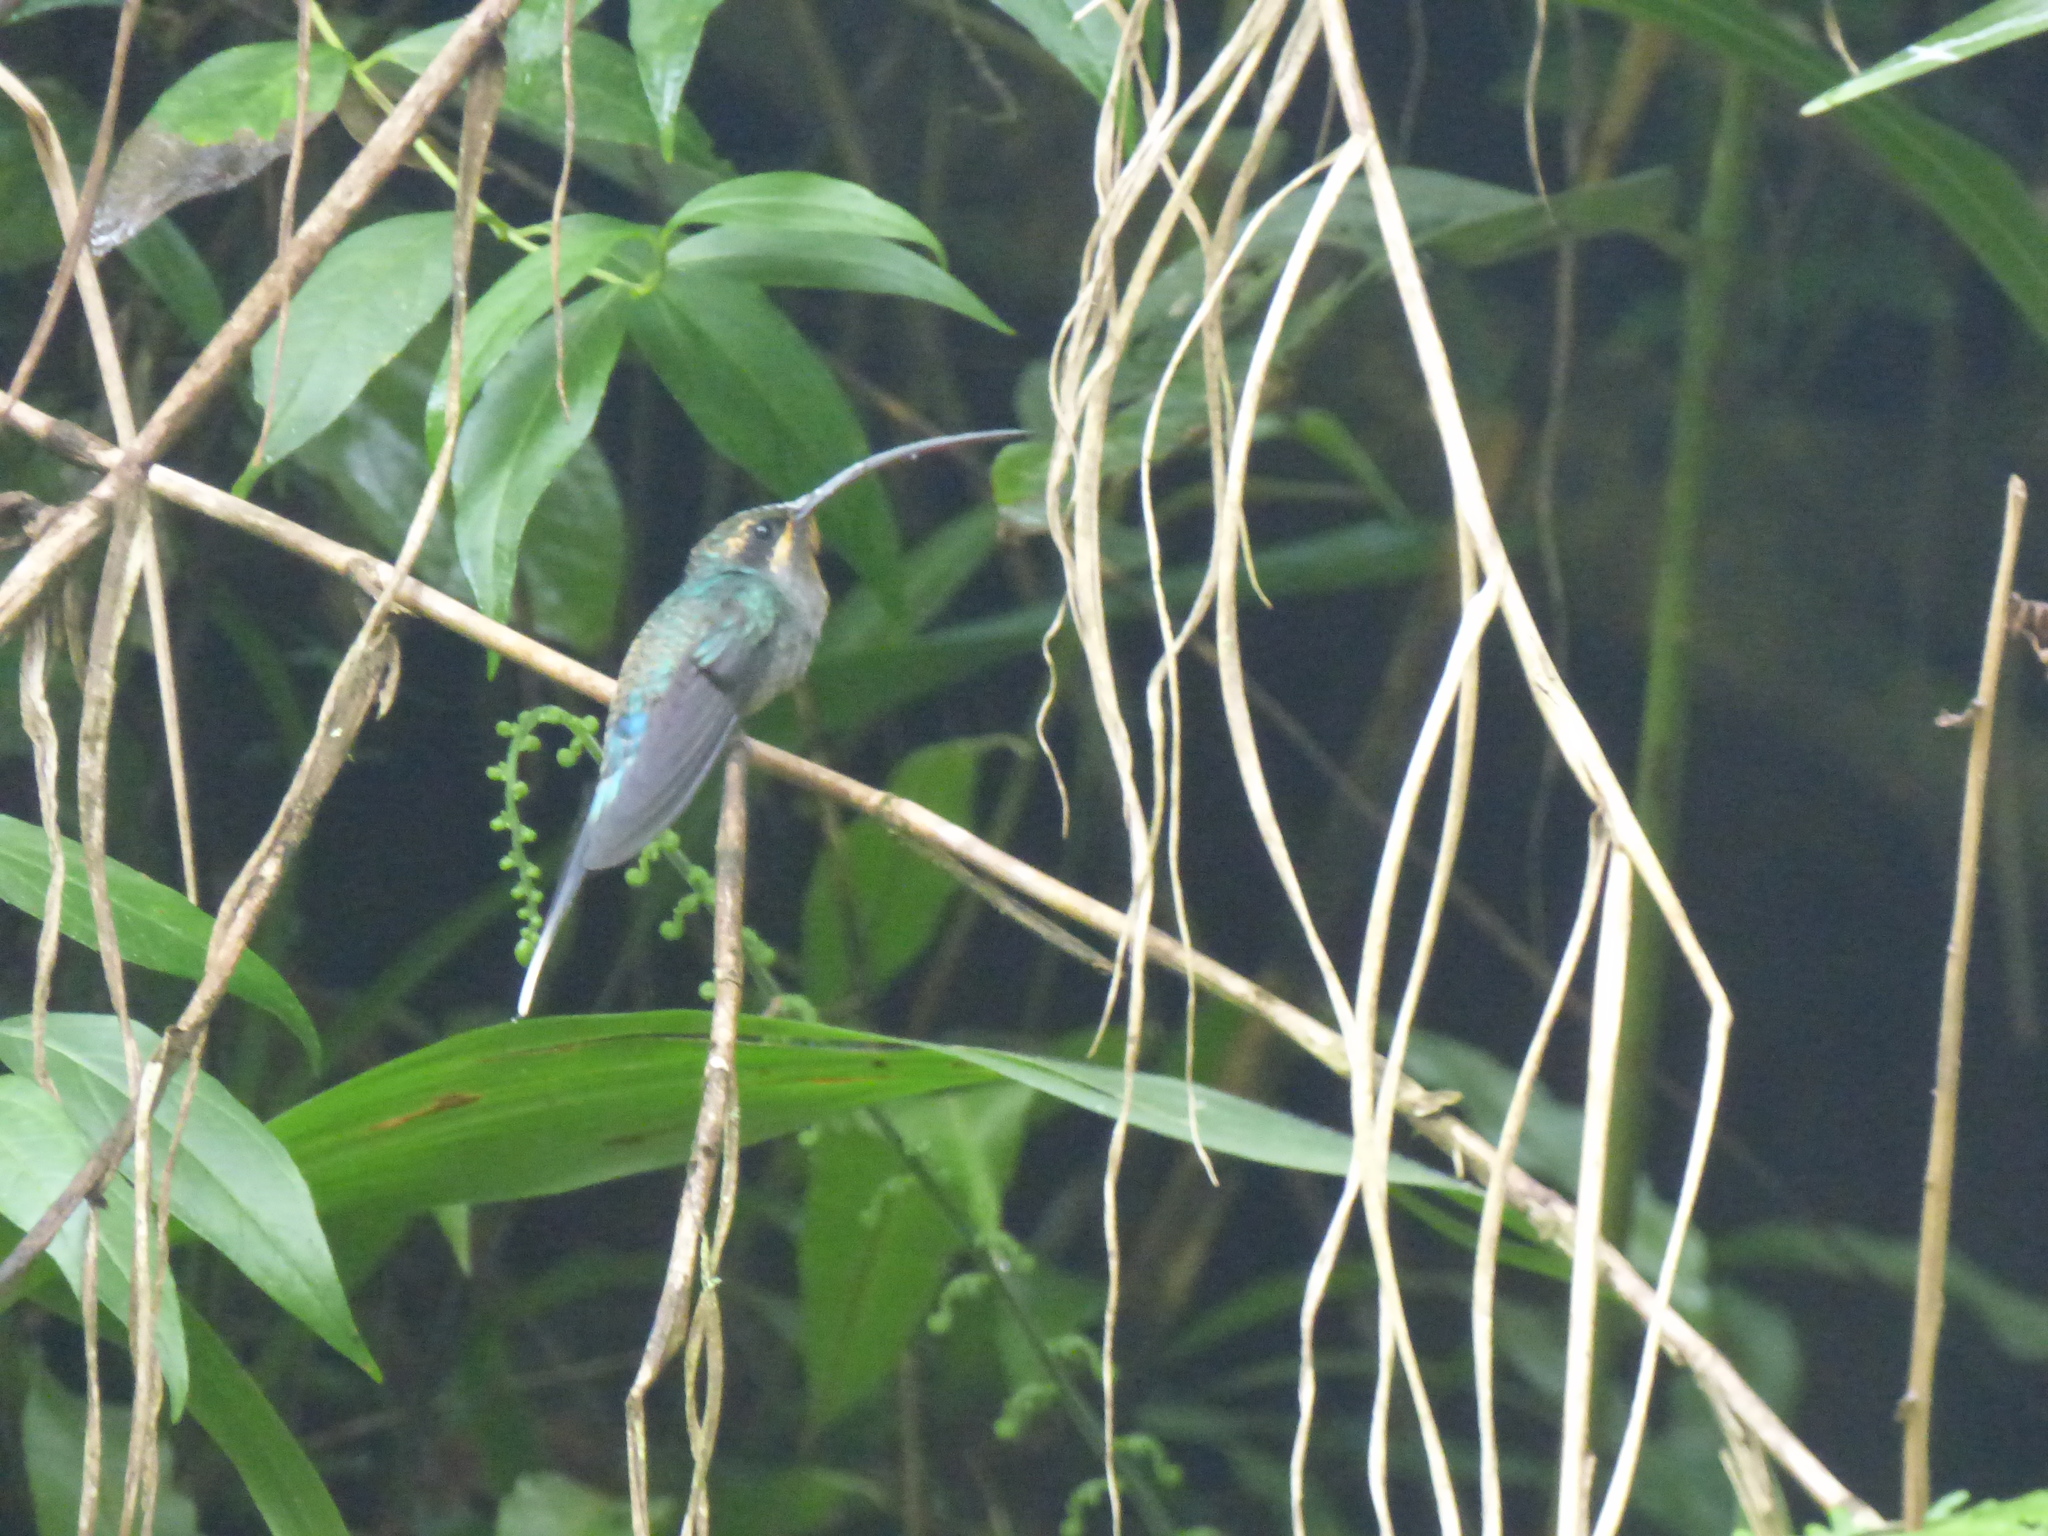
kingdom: Animalia
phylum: Chordata
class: Aves
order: Apodiformes
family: Trochilidae
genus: Phaethornis
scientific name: Phaethornis guy
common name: Green hermit
